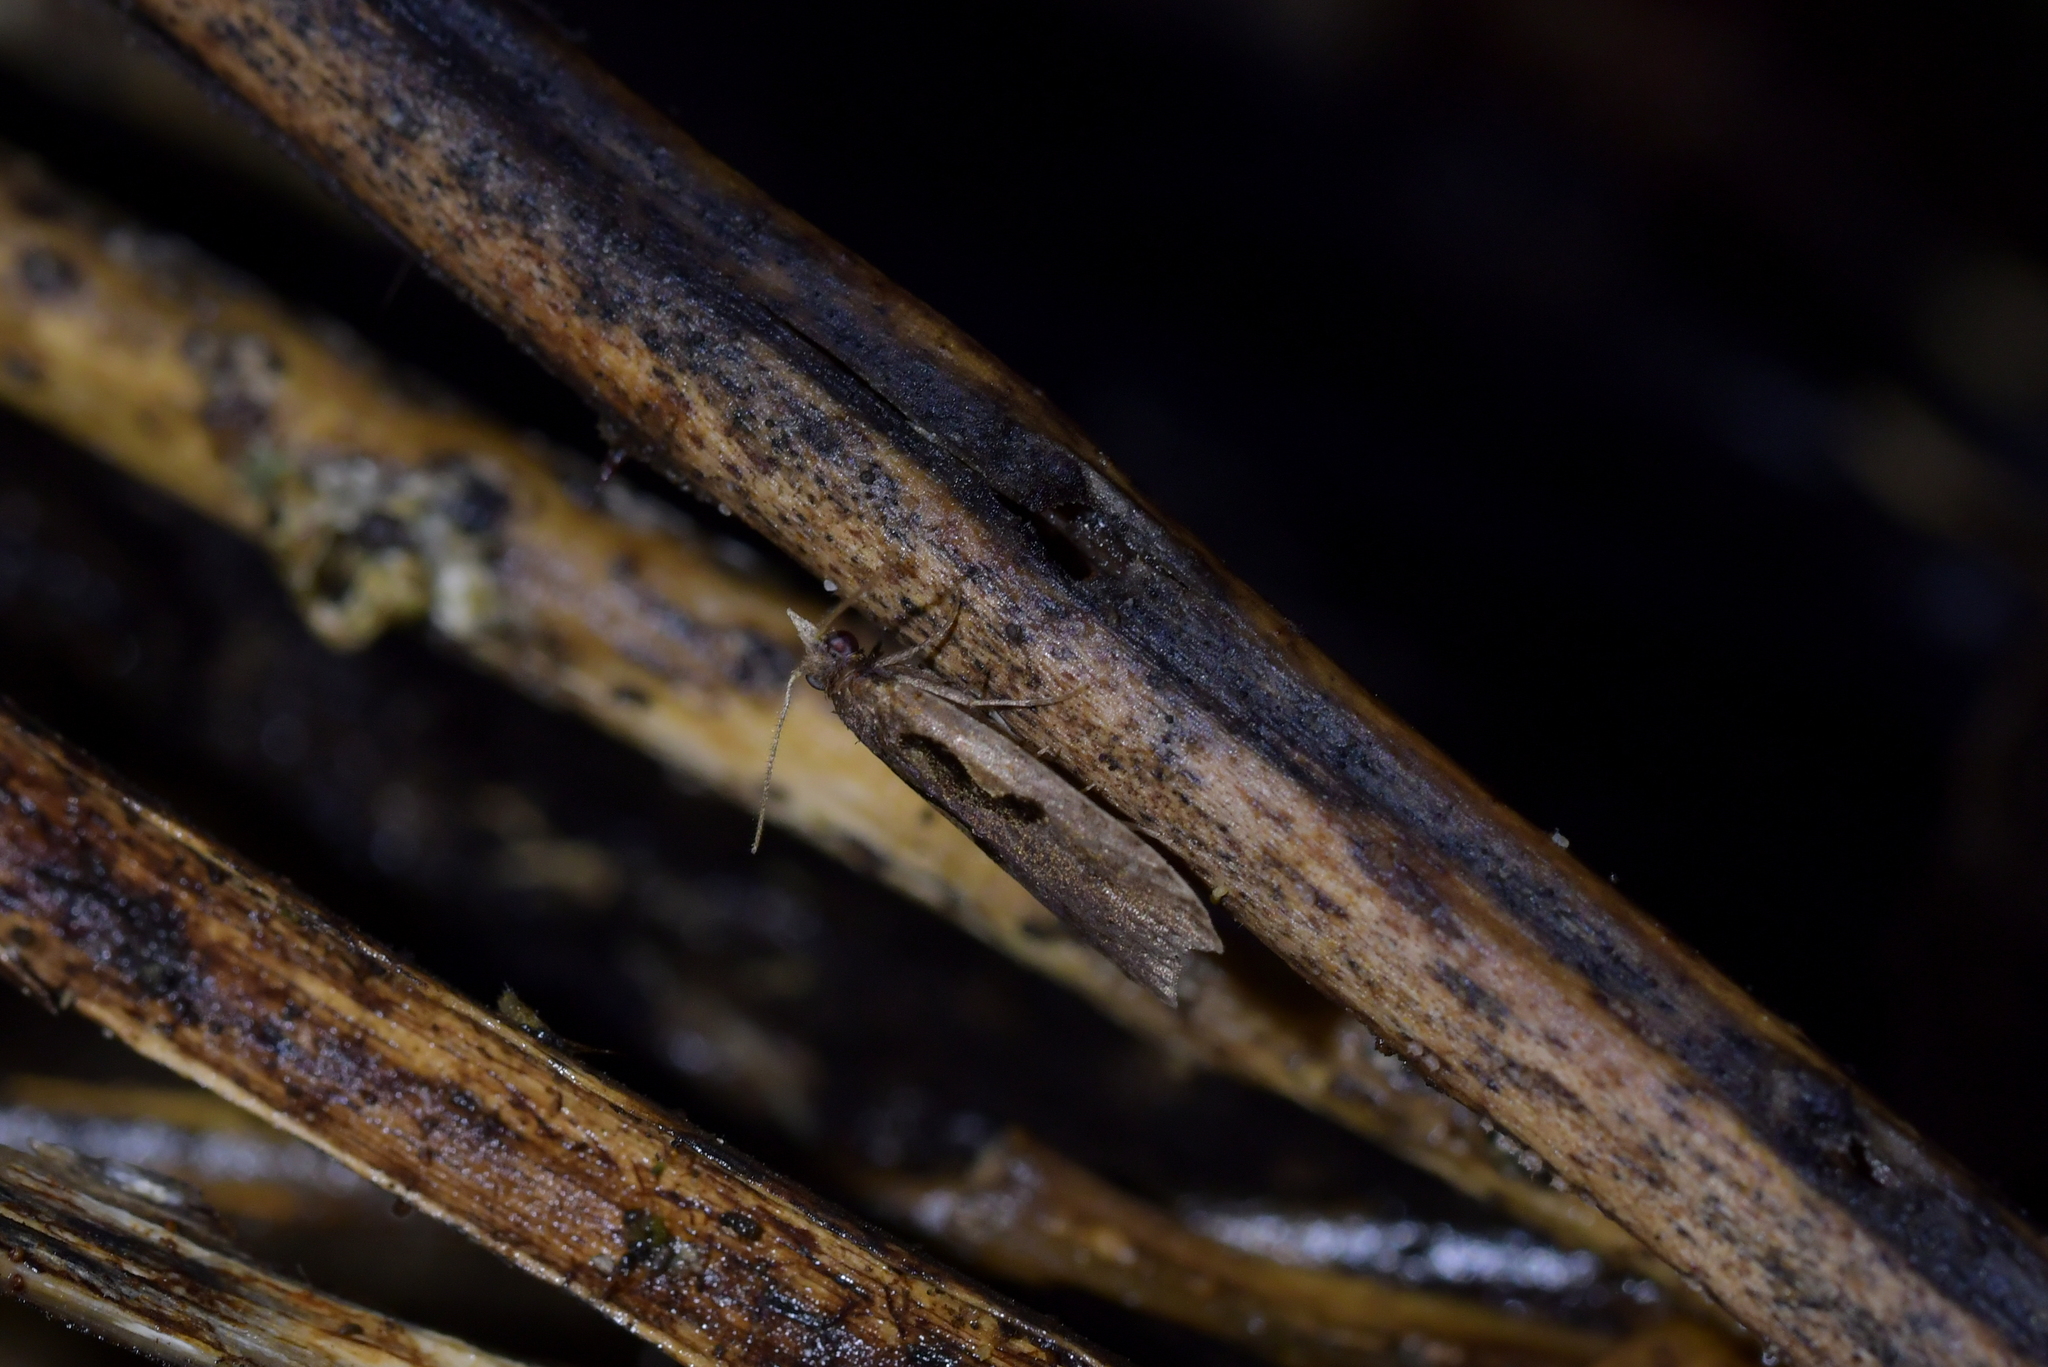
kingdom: Animalia
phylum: Arthropoda
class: Insecta
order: Lepidoptera
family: Tortricidae
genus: Cnephasia
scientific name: Cnephasia jactatana
